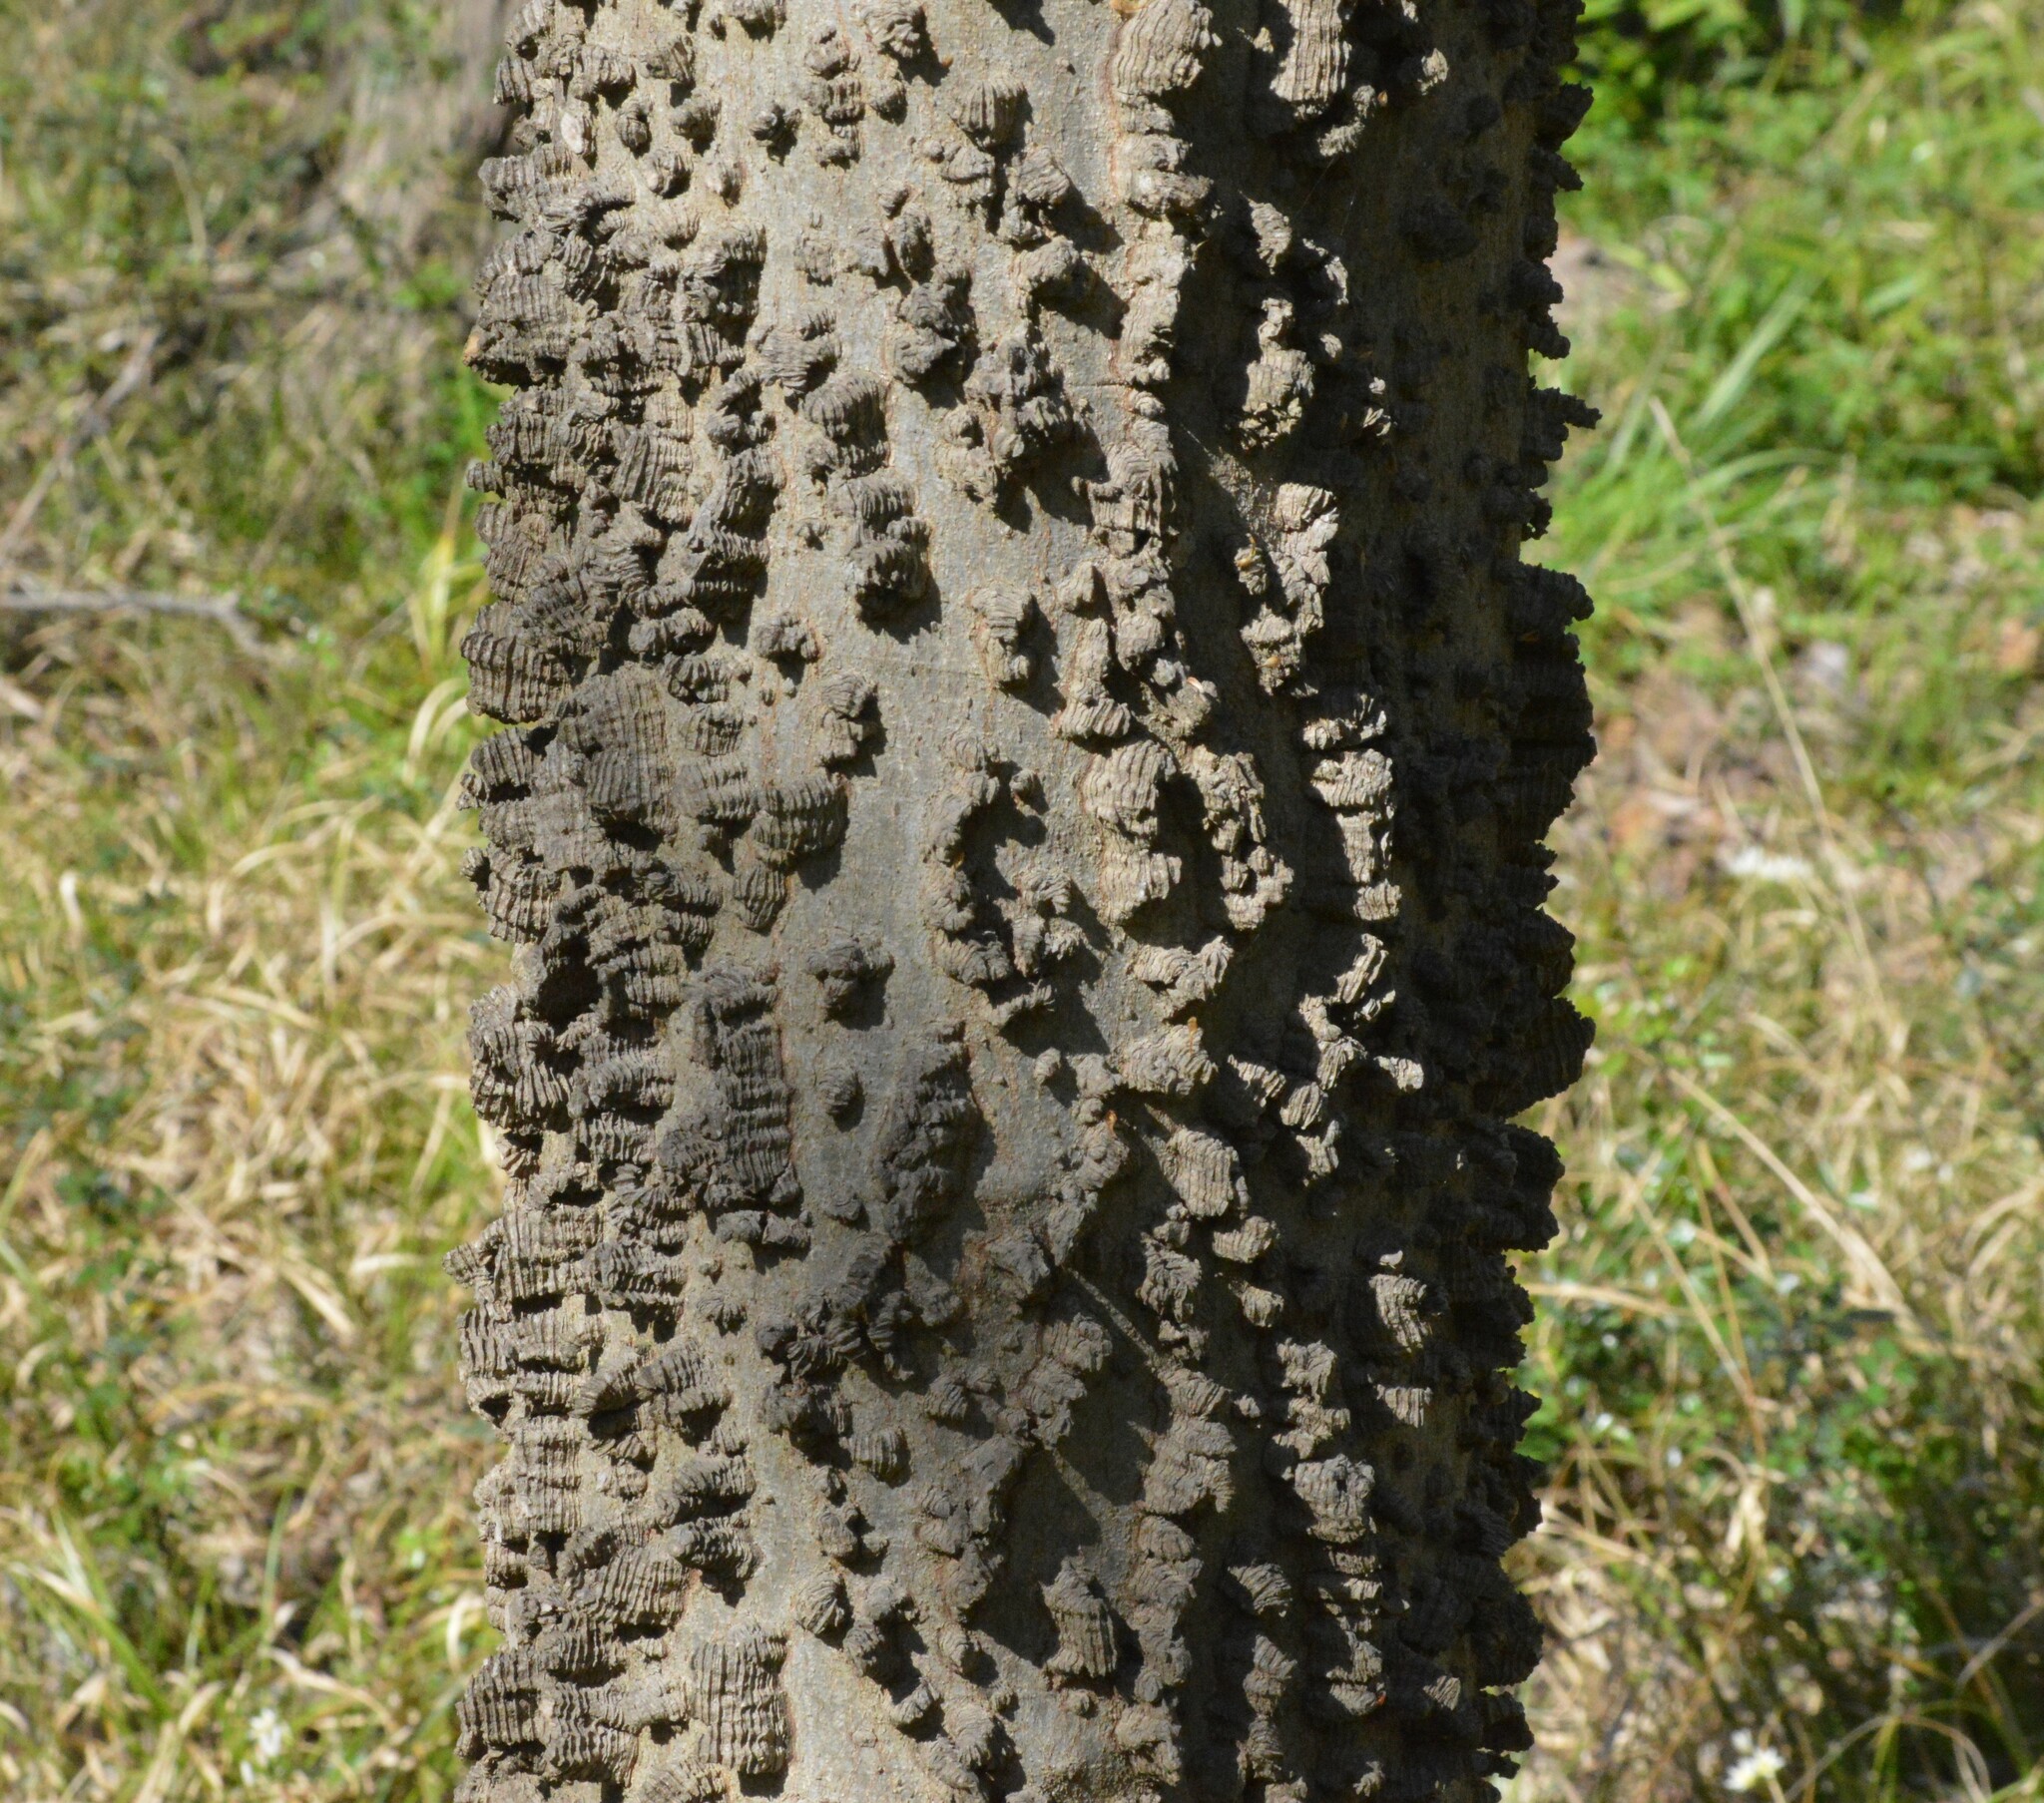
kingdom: Plantae
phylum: Tracheophyta
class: Magnoliopsida
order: Rosales
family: Cannabaceae
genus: Celtis
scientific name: Celtis laevigata
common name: Sugarberry
